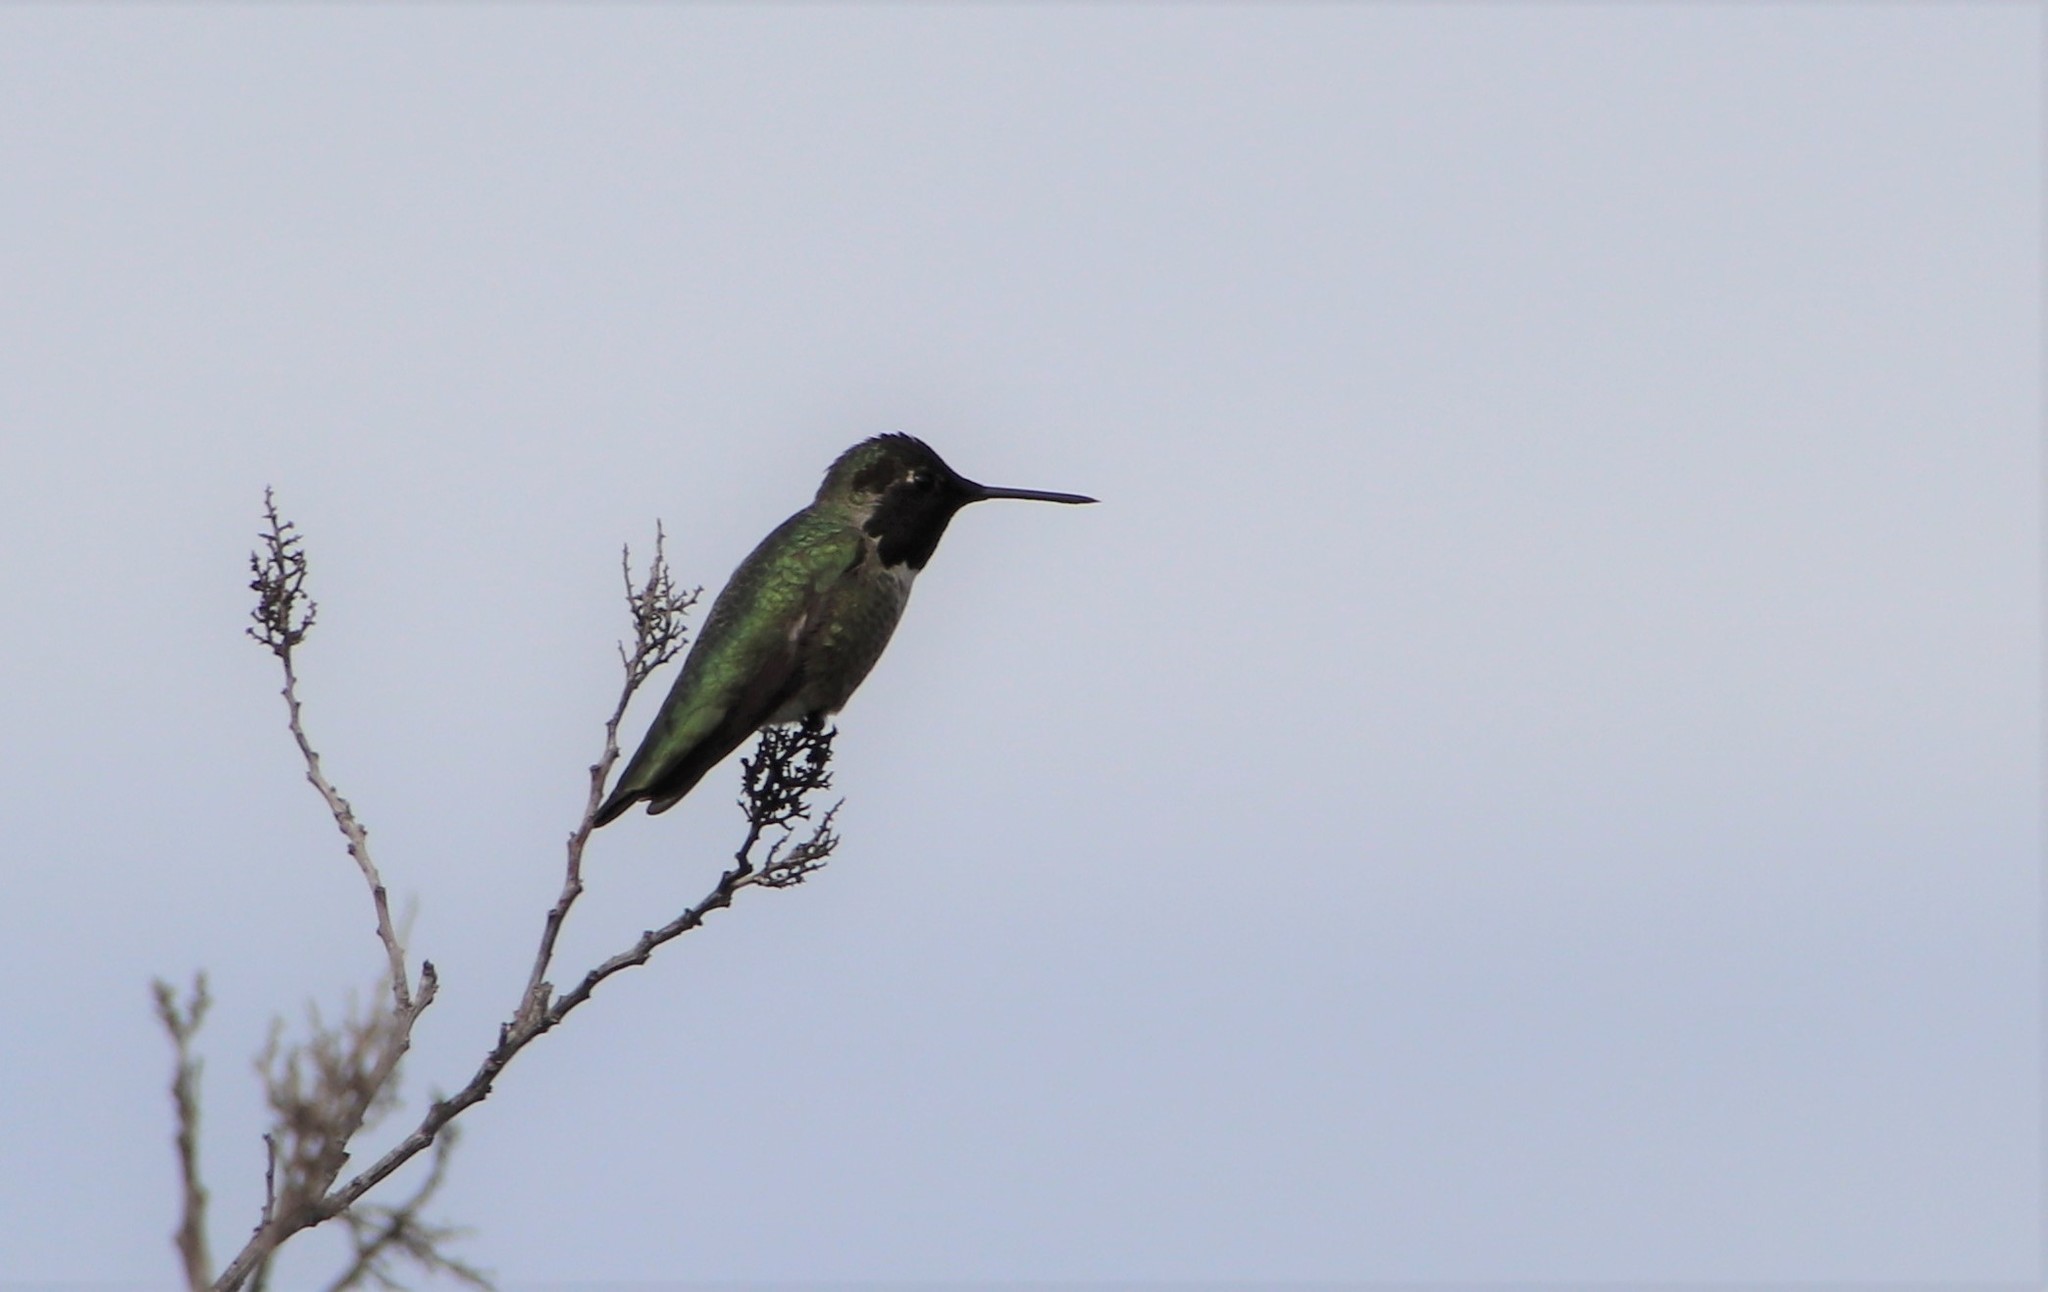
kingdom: Animalia
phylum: Chordata
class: Aves
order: Apodiformes
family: Trochilidae
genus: Calypte
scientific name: Calypte anna
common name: Anna's hummingbird
